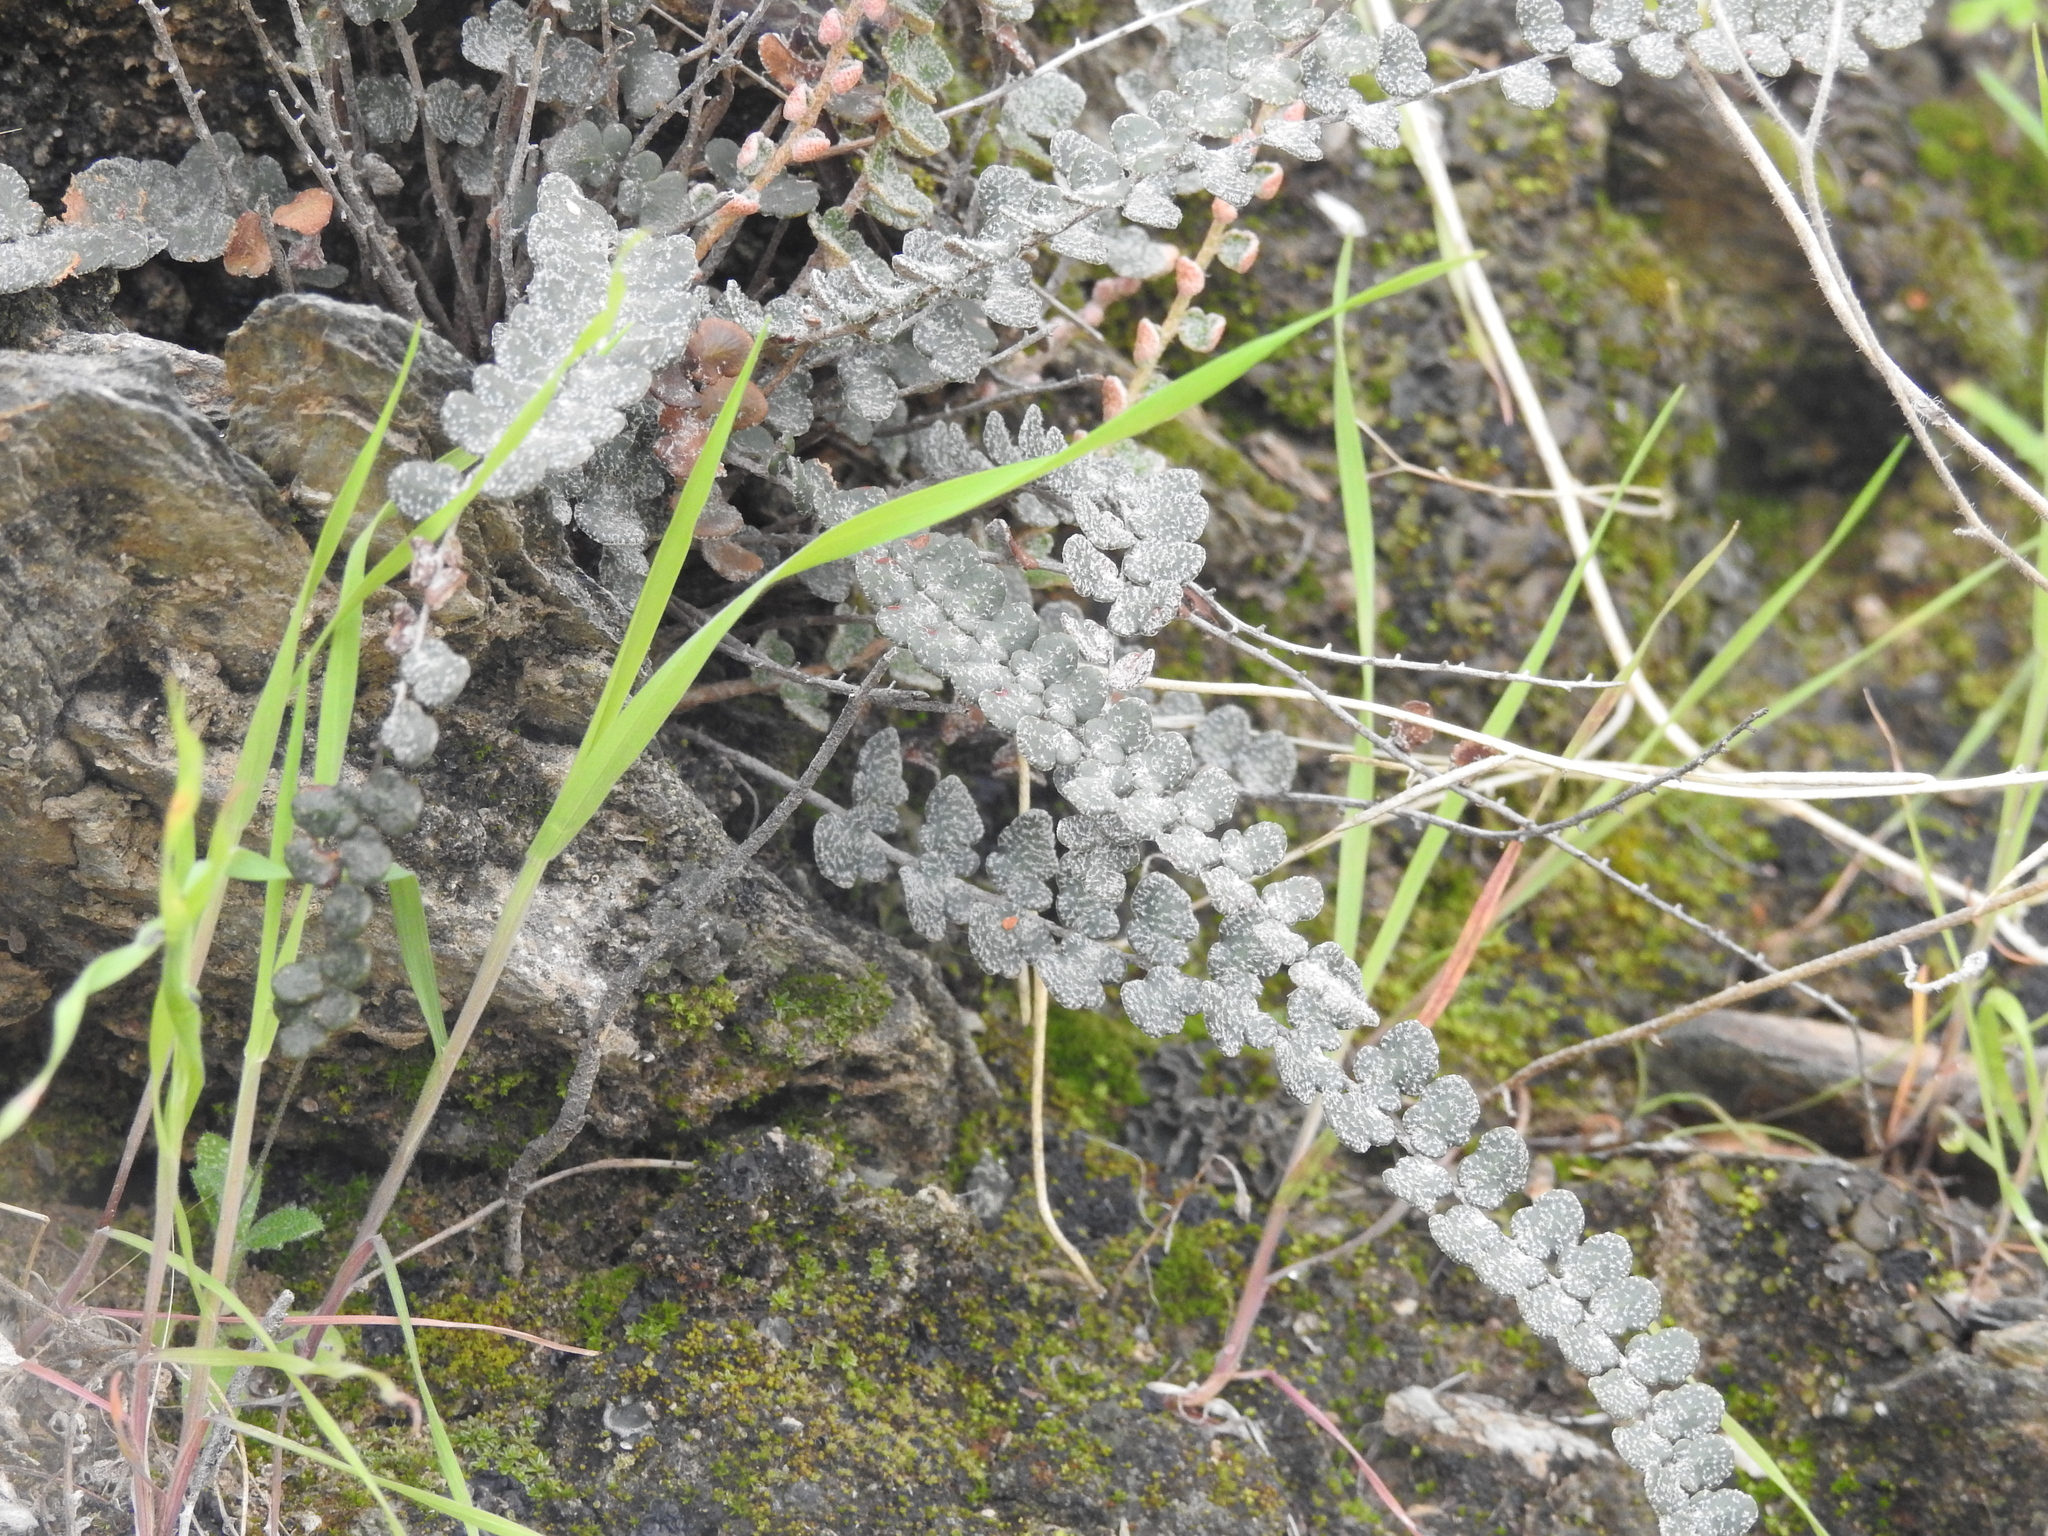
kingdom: Plantae
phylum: Tracheophyta
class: Polypodiopsida
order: Polypodiales
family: Pteridaceae
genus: Astrolepis
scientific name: Astrolepis cochisensis
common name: Scaly cloak fern
